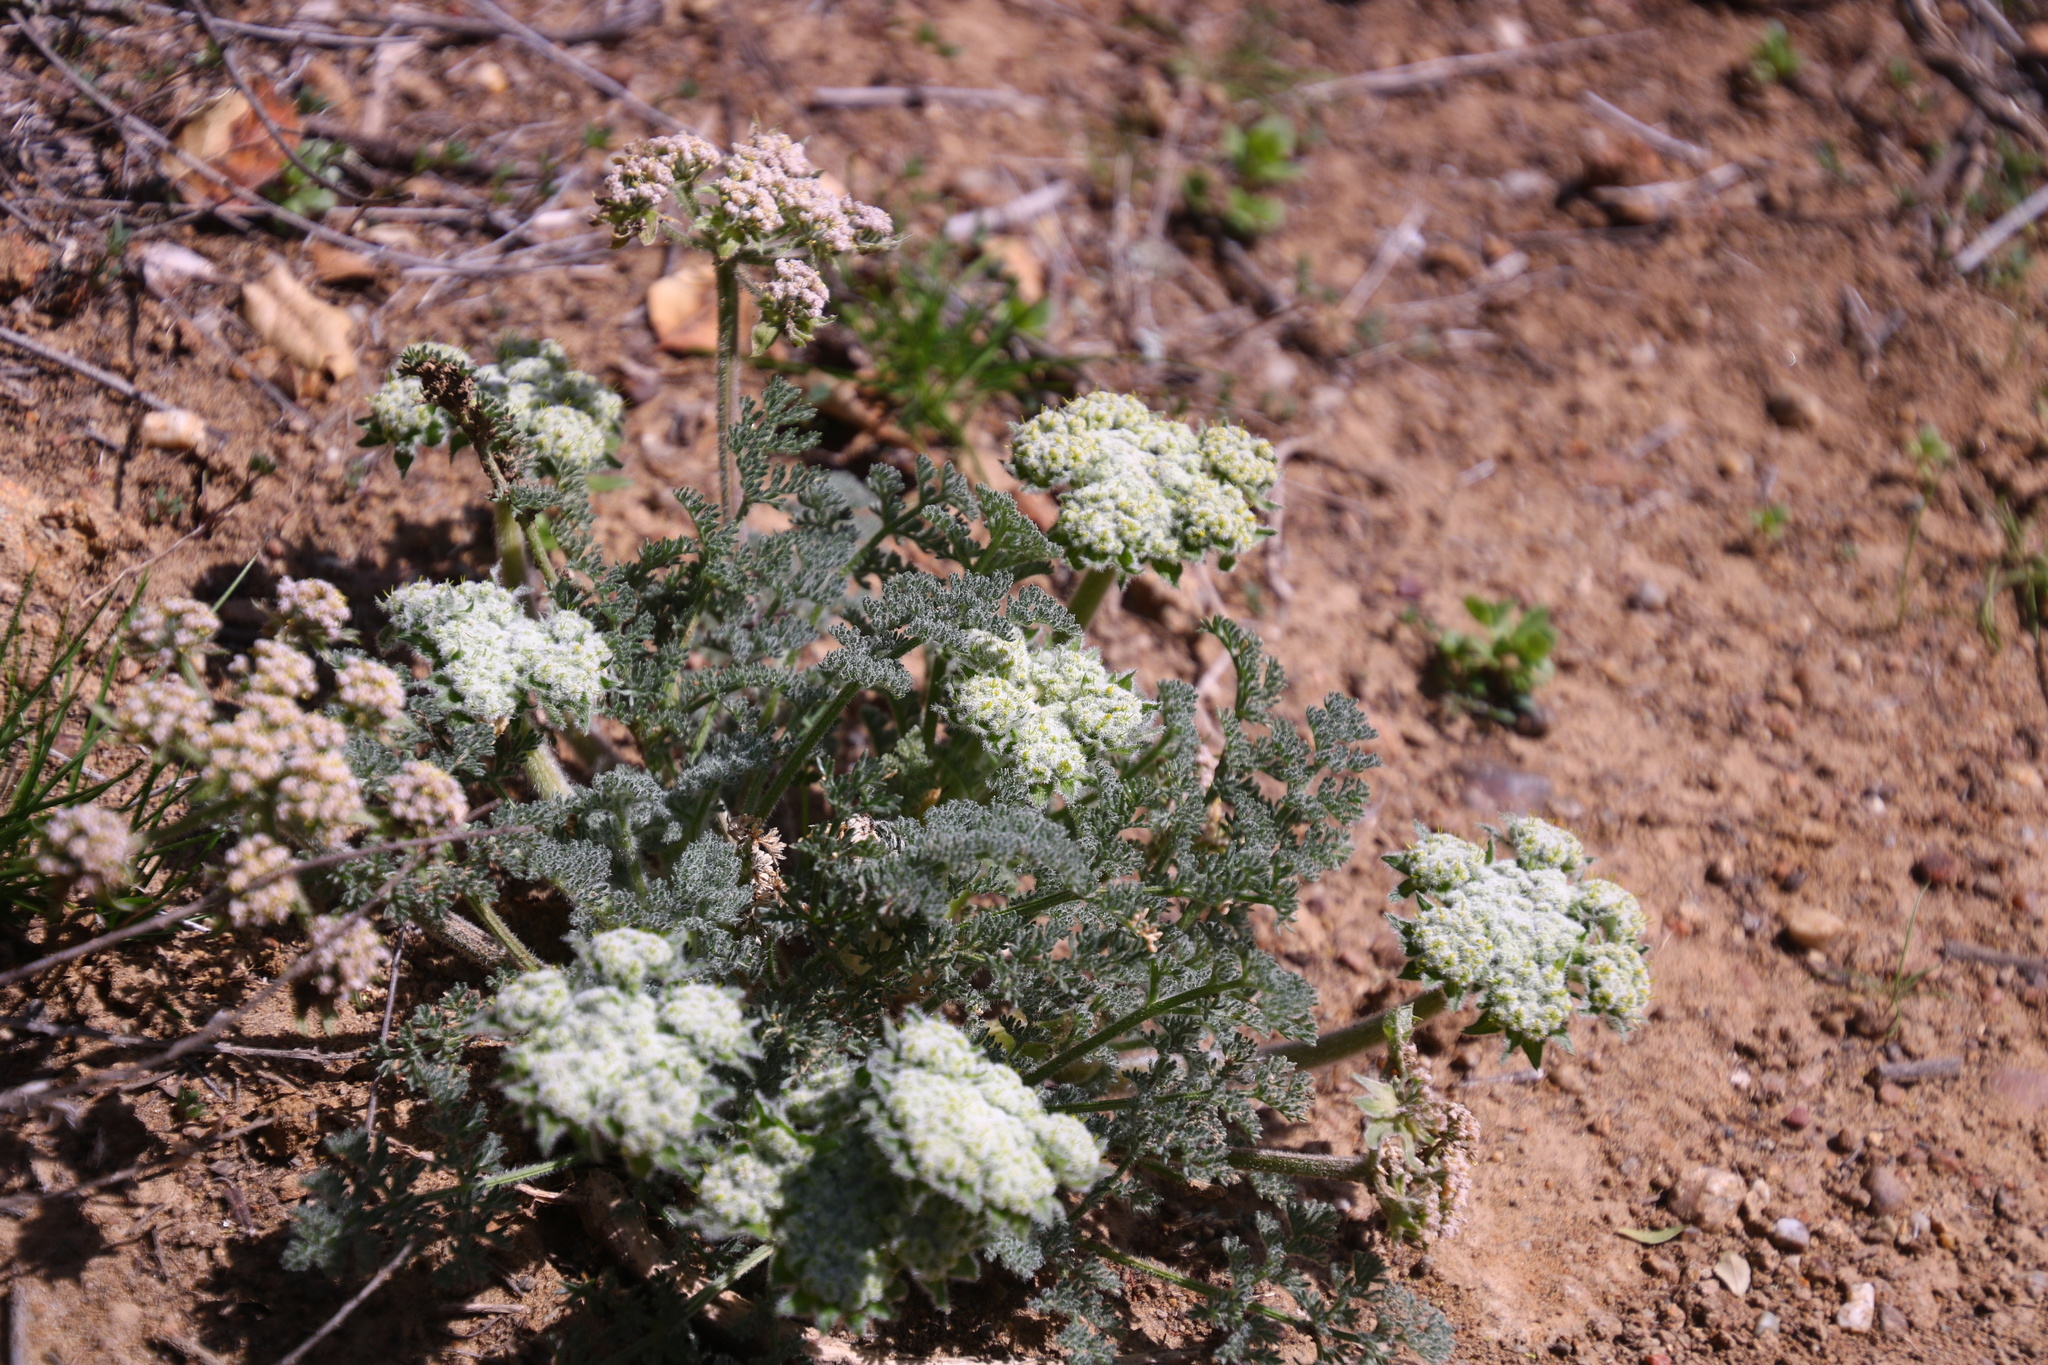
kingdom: Plantae
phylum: Tracheophyta
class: Magnoliopsida
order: Apiales
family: Apiaceae
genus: Lomatium
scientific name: Lomatium dasycarpum
